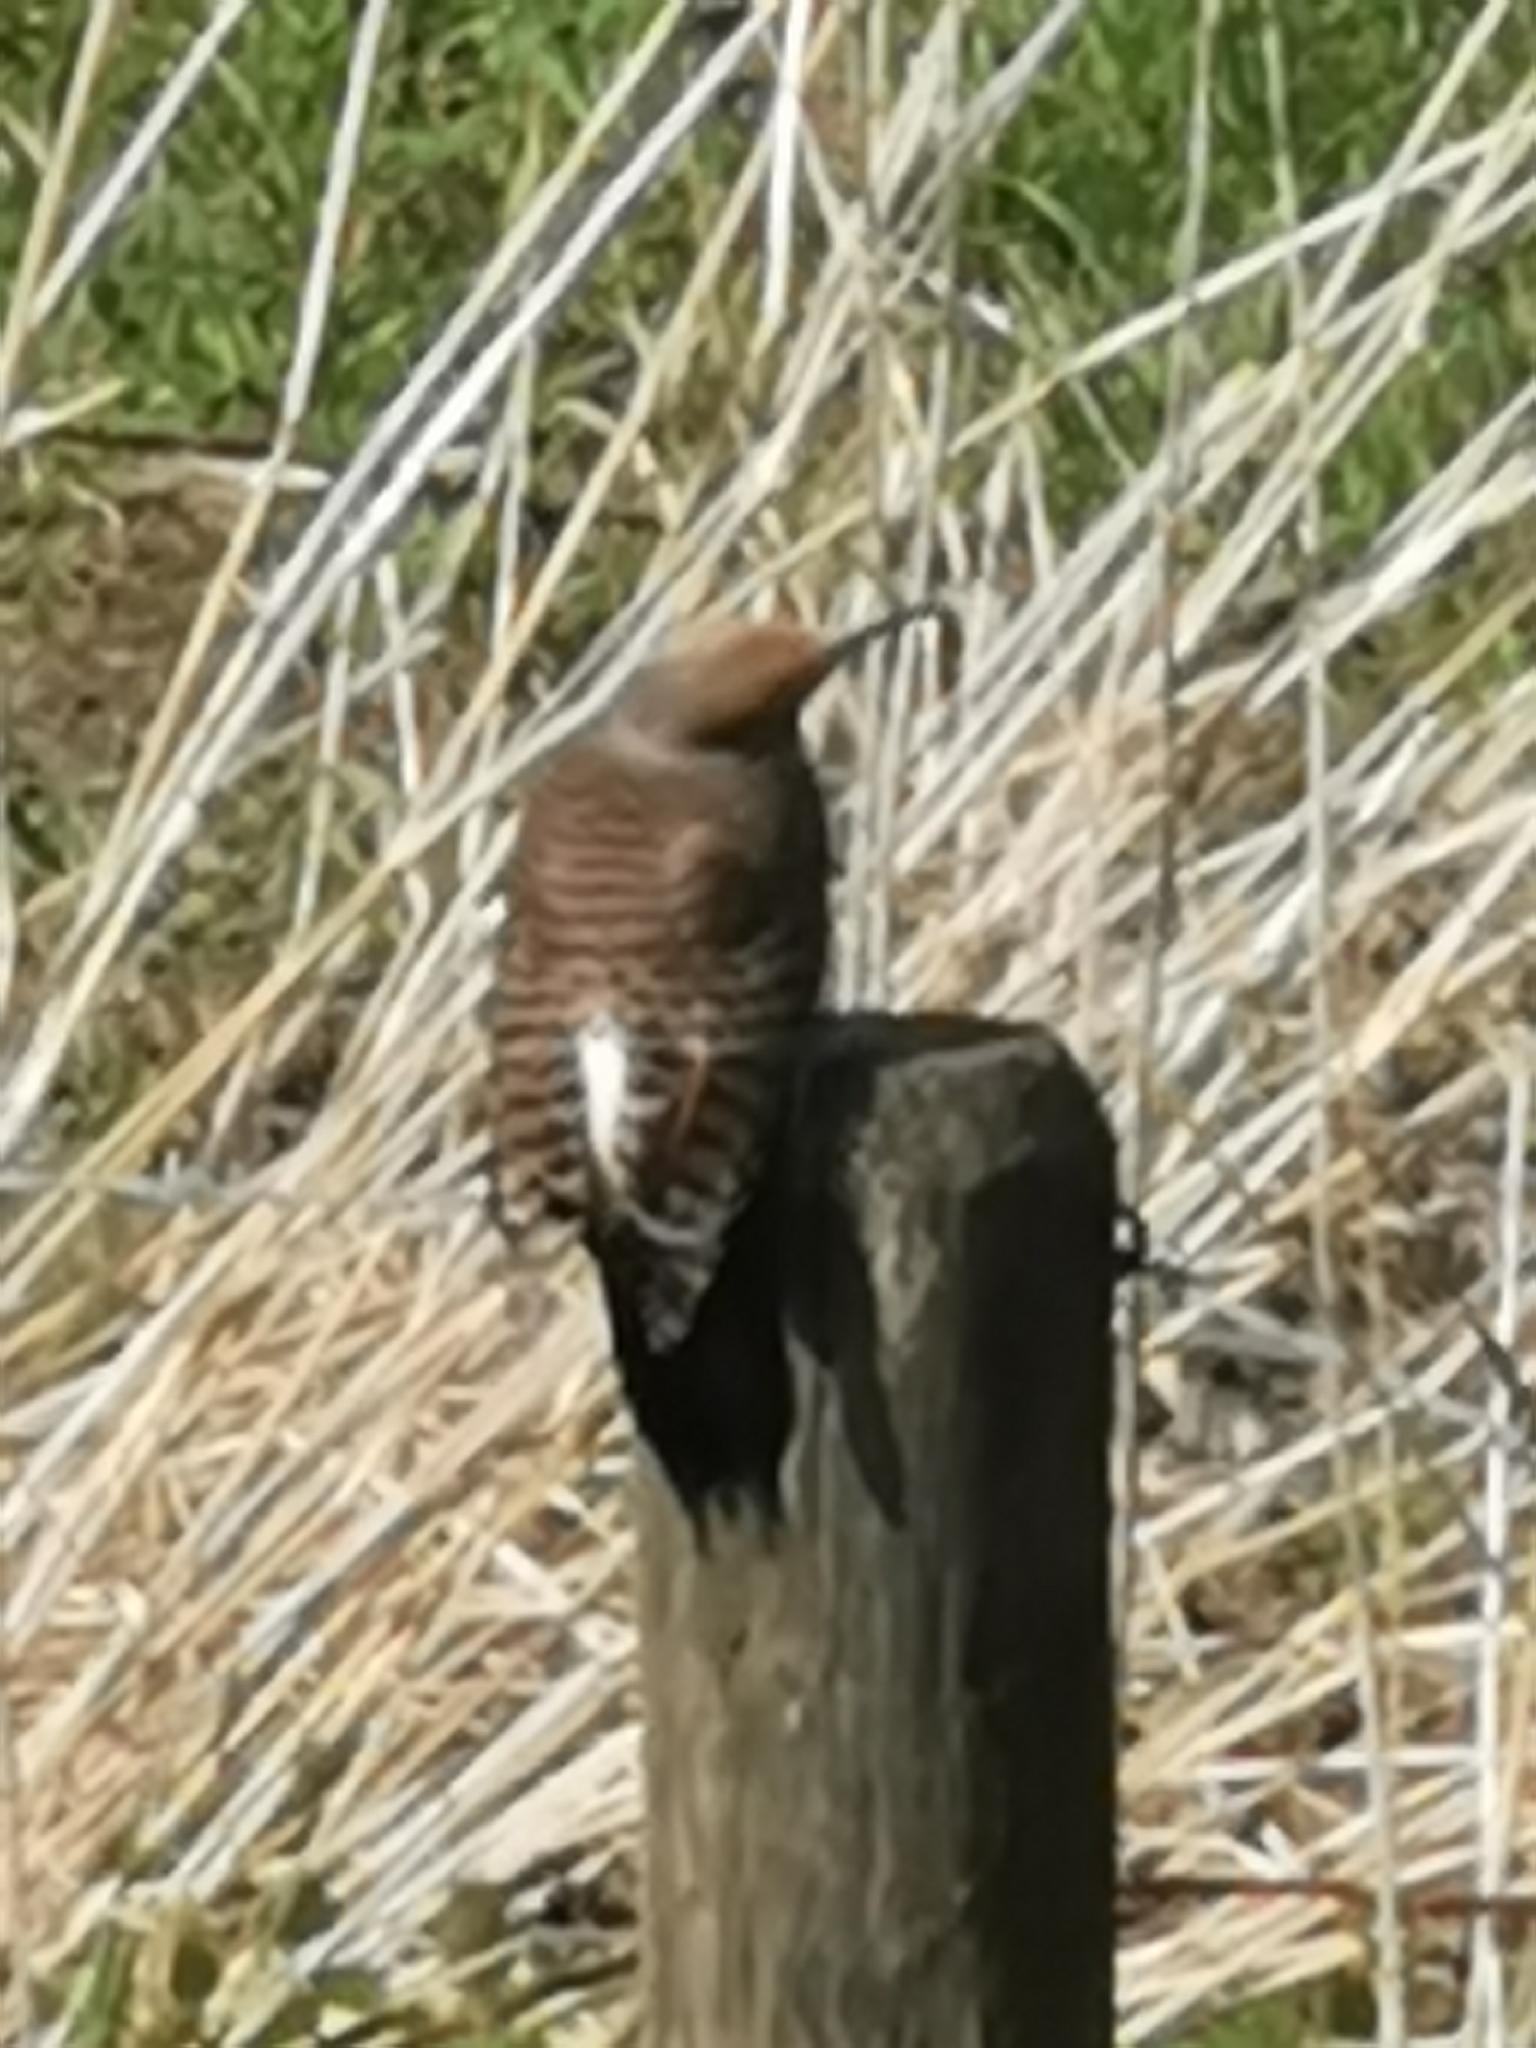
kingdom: Animalia
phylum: Chordata
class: Aves
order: Piciformes
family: Picidae
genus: Colaptes
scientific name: Colaptes auratus
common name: Northern flicker
